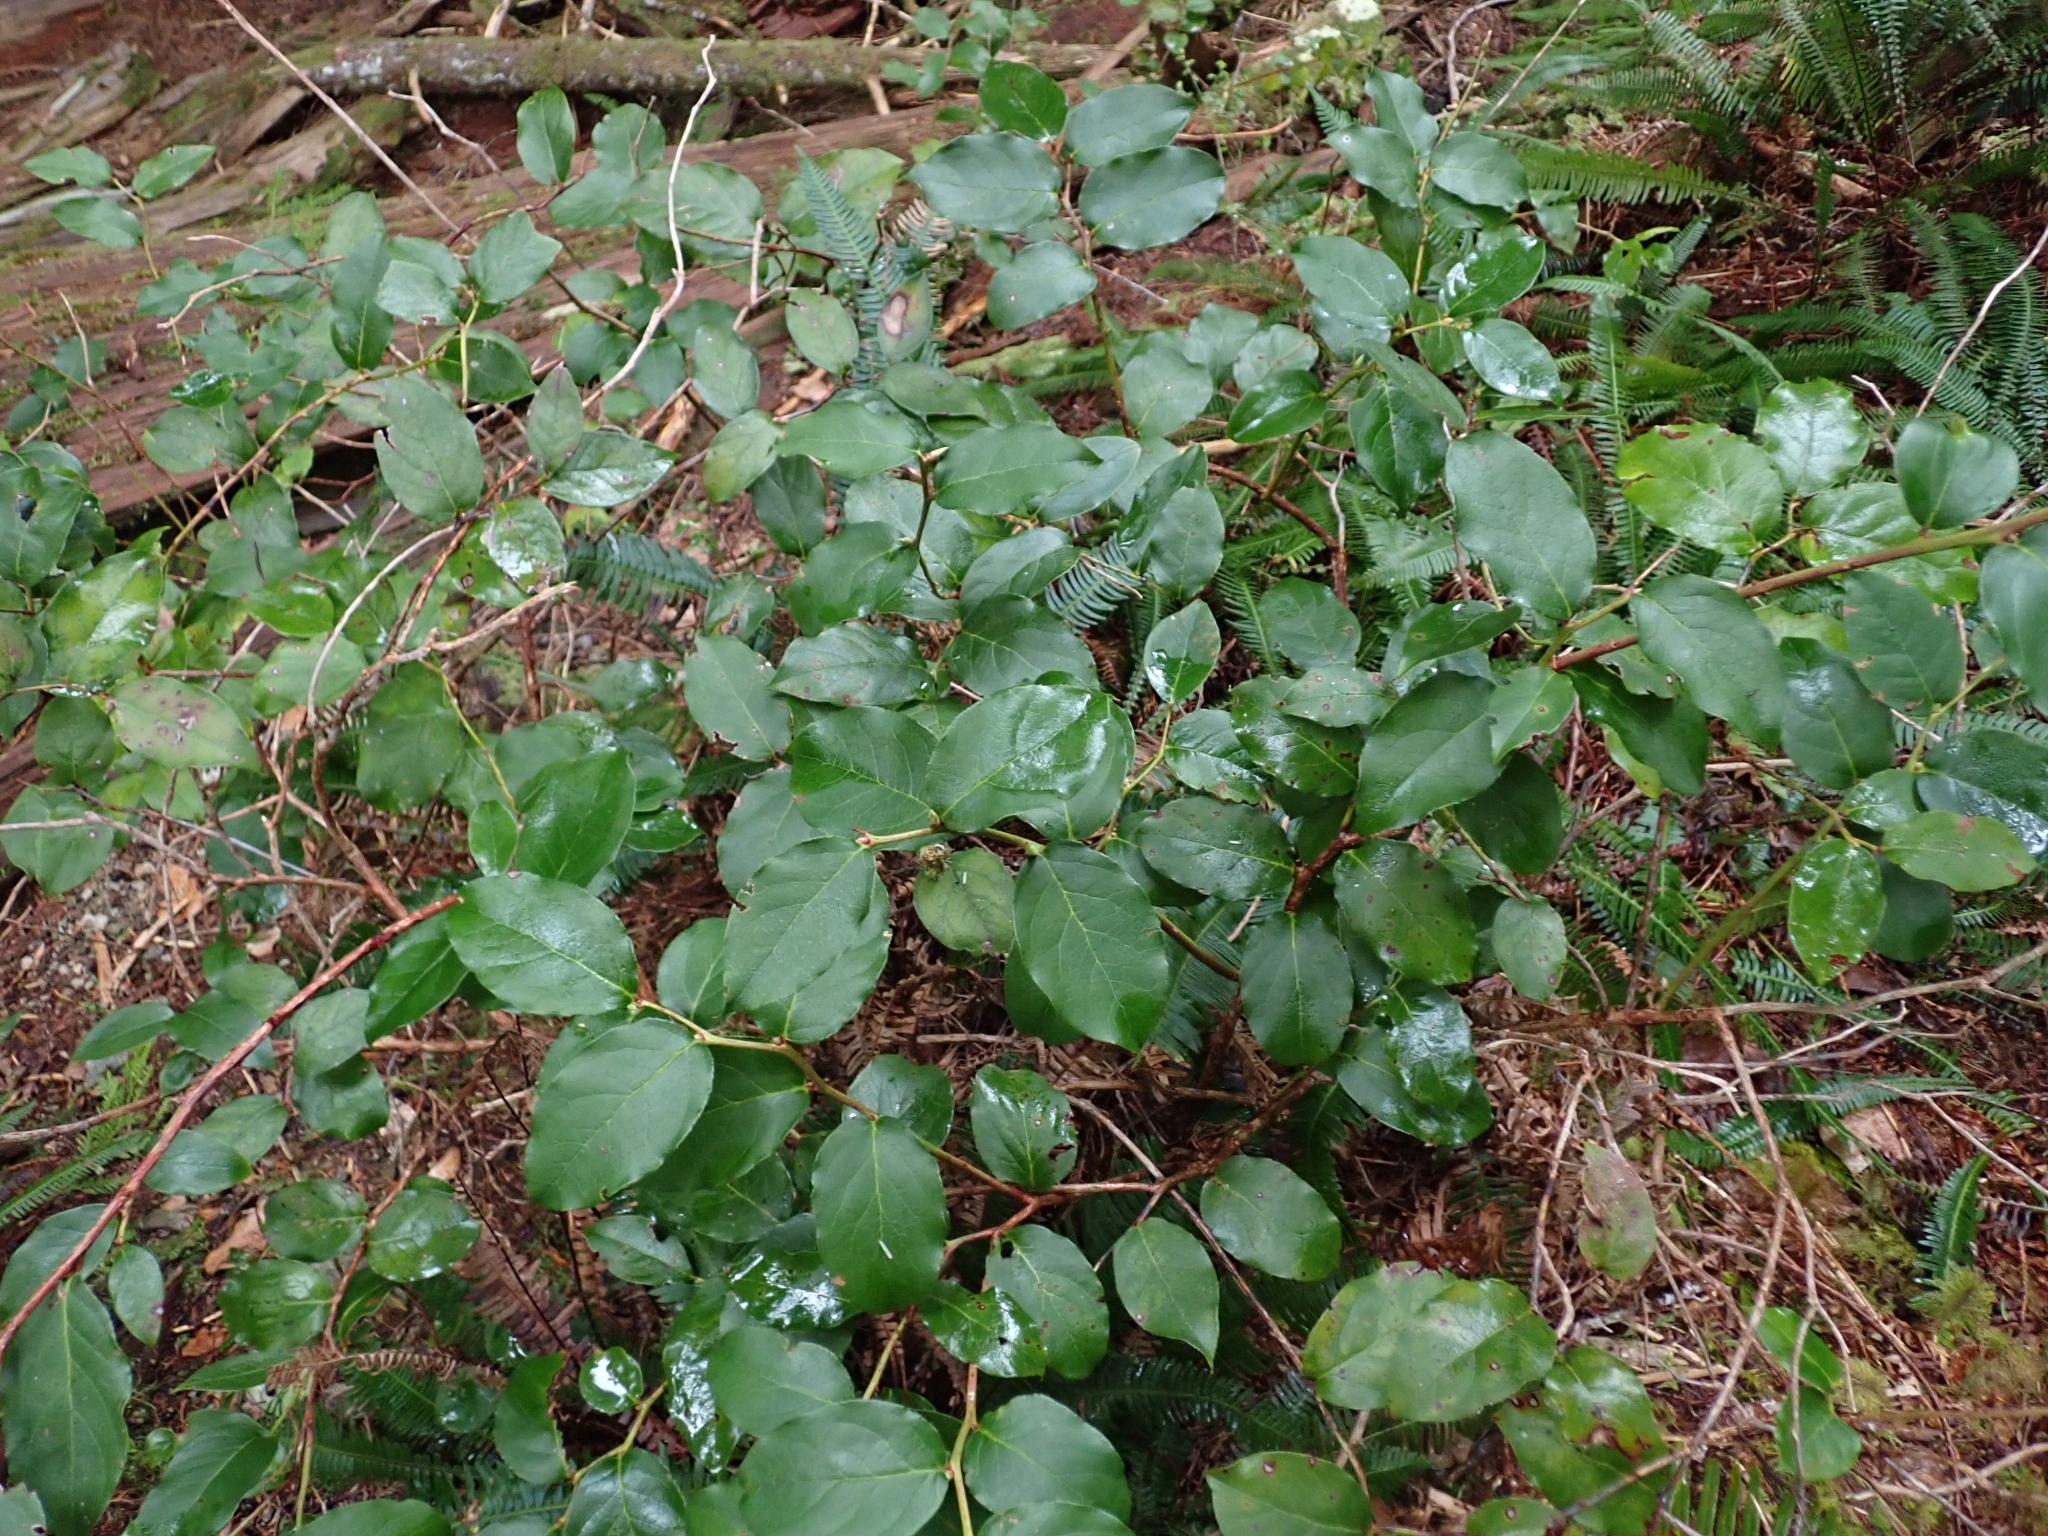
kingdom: Plantae
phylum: Tracheophyta
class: Magnoliopsida
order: Ericales
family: Ericaceae
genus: Gaultheria
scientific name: Gaultheria shallon
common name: Shallon
